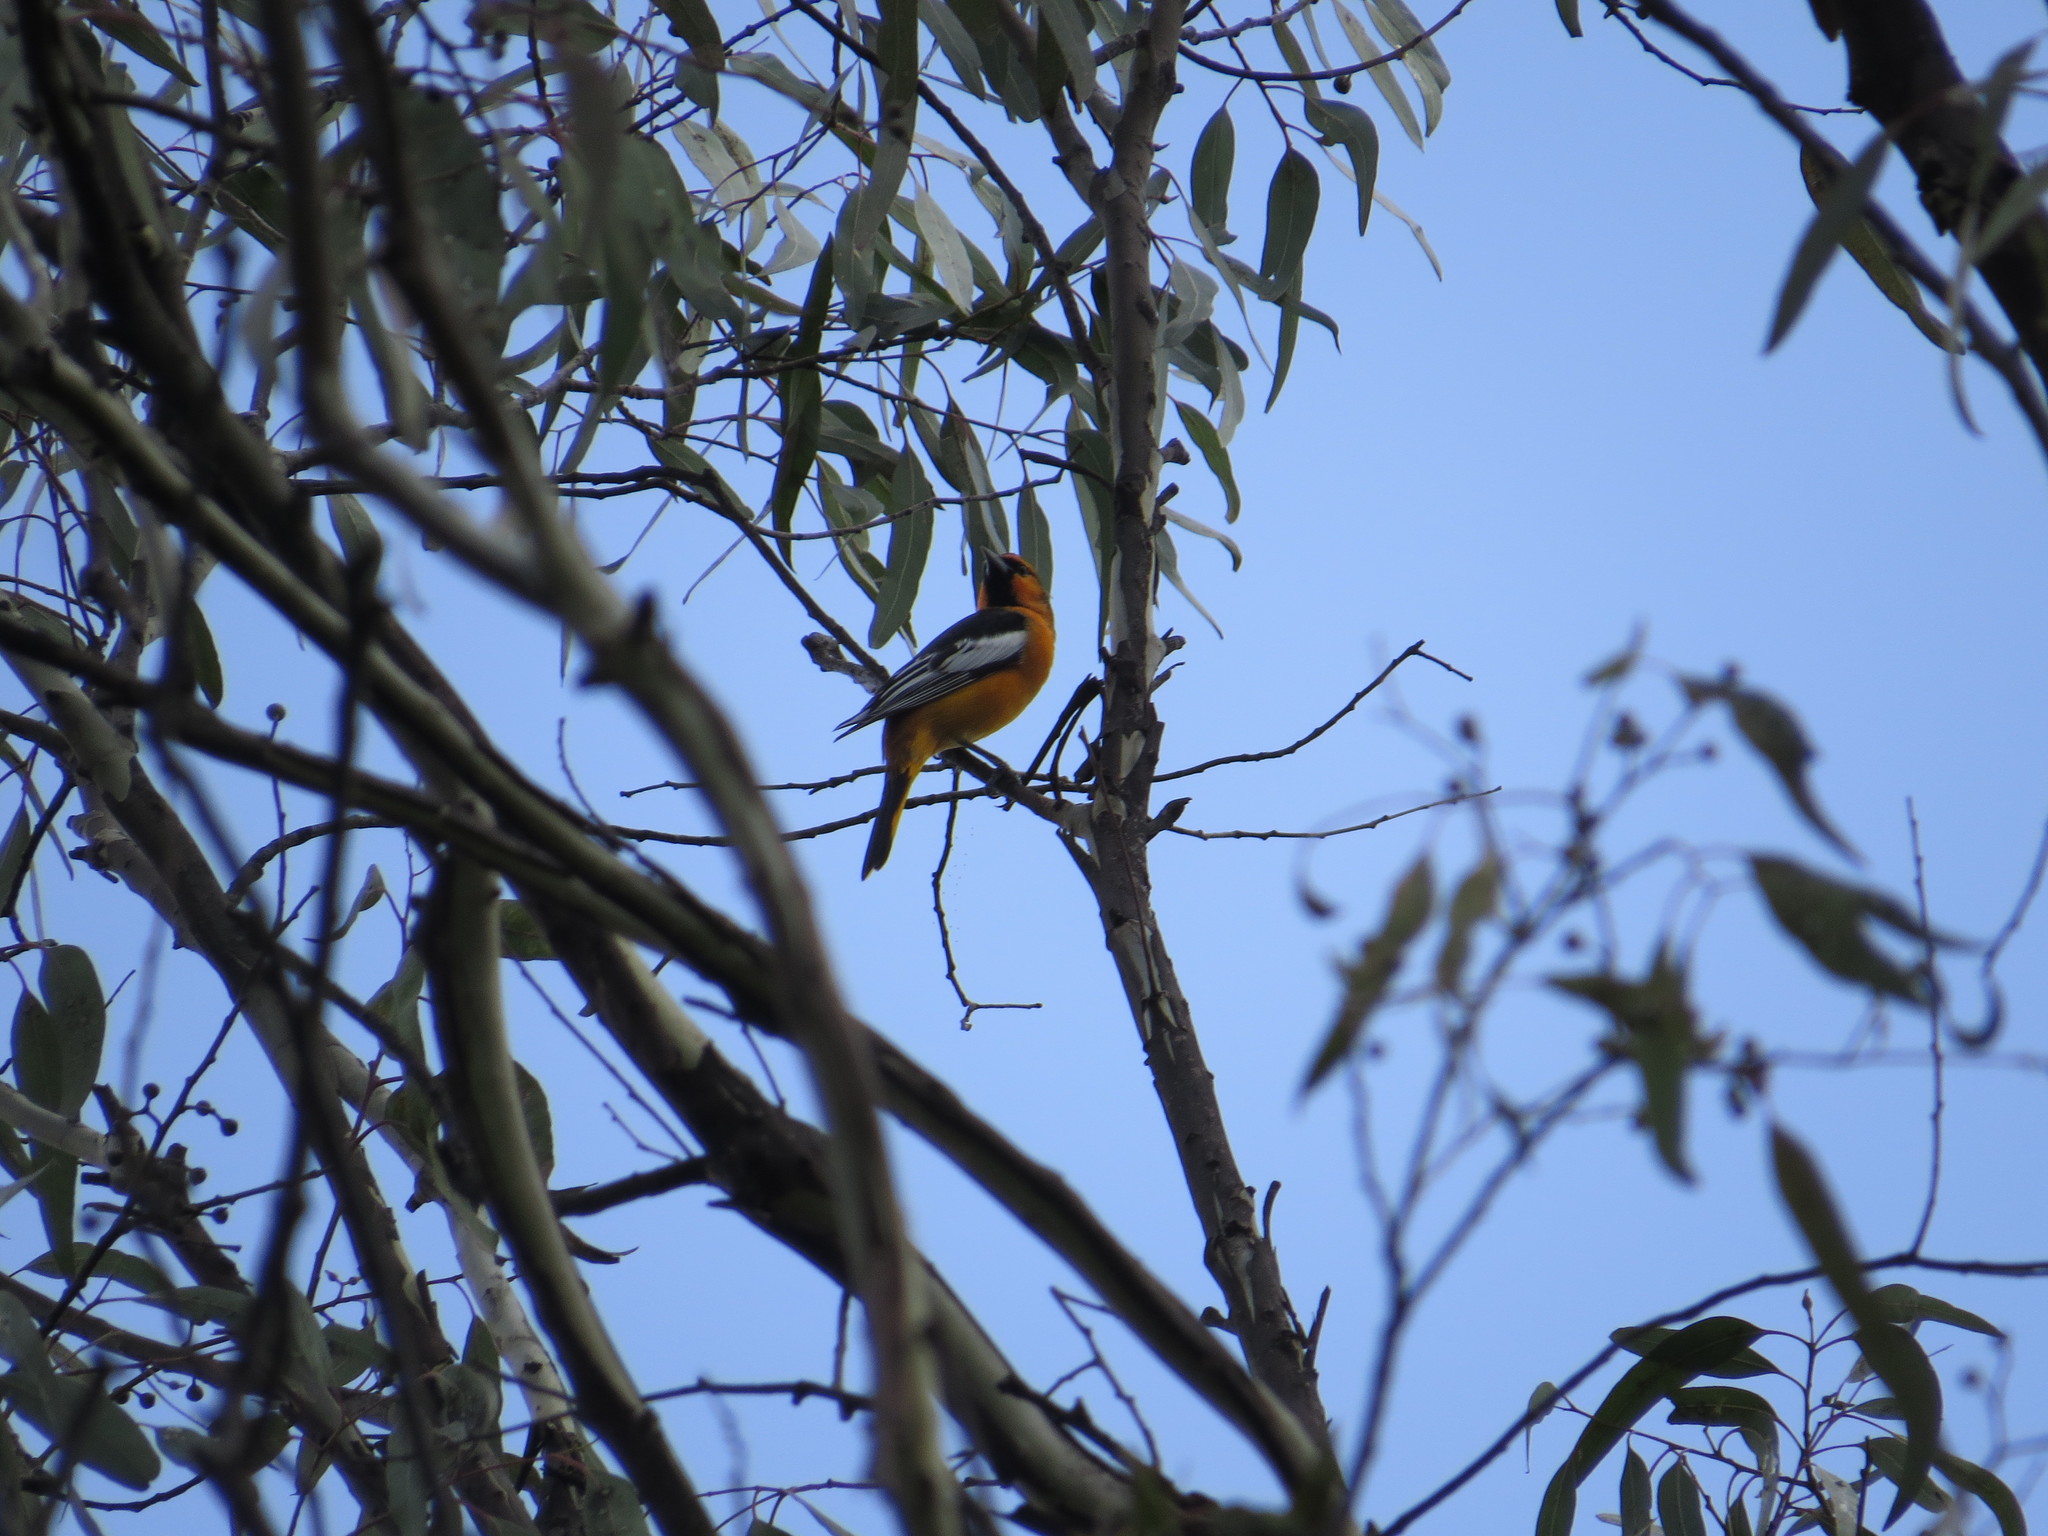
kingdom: Animalia
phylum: Chordata
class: Aves
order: Passeriformes
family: Icteridae
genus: Icterus
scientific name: Icterus bullockii
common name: Bullock's oriole
